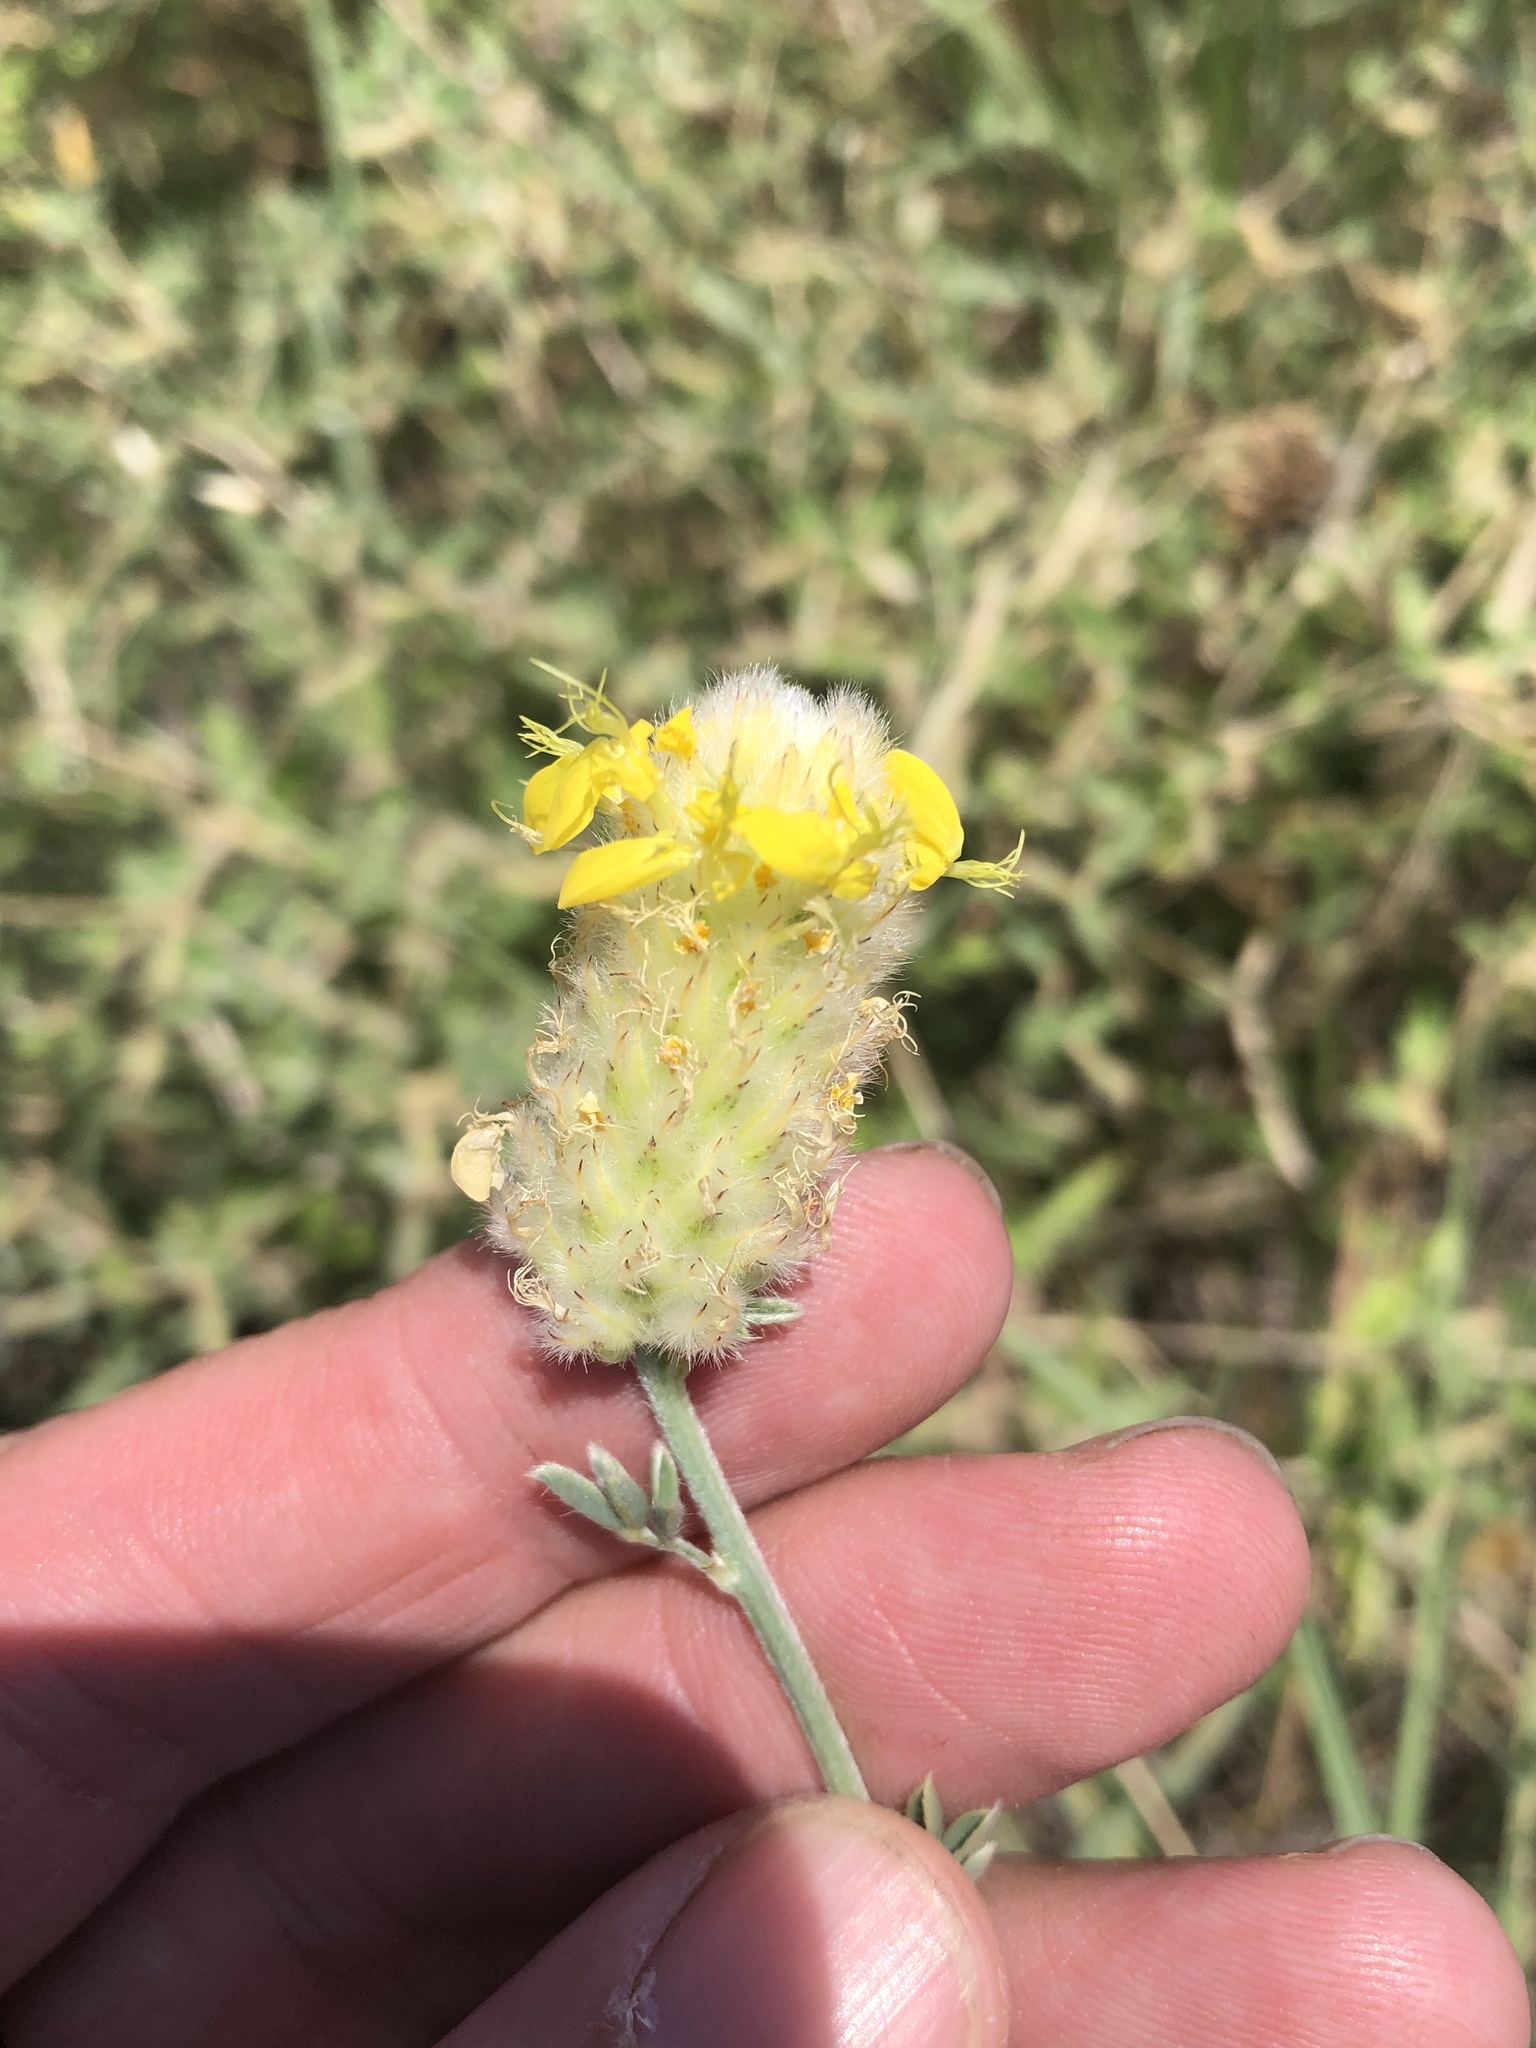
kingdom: Plantae
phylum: Tracheophyta
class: Magnoliopsida
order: Fabales
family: Fabaceae
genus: Dalea
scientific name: Dalea aurea
